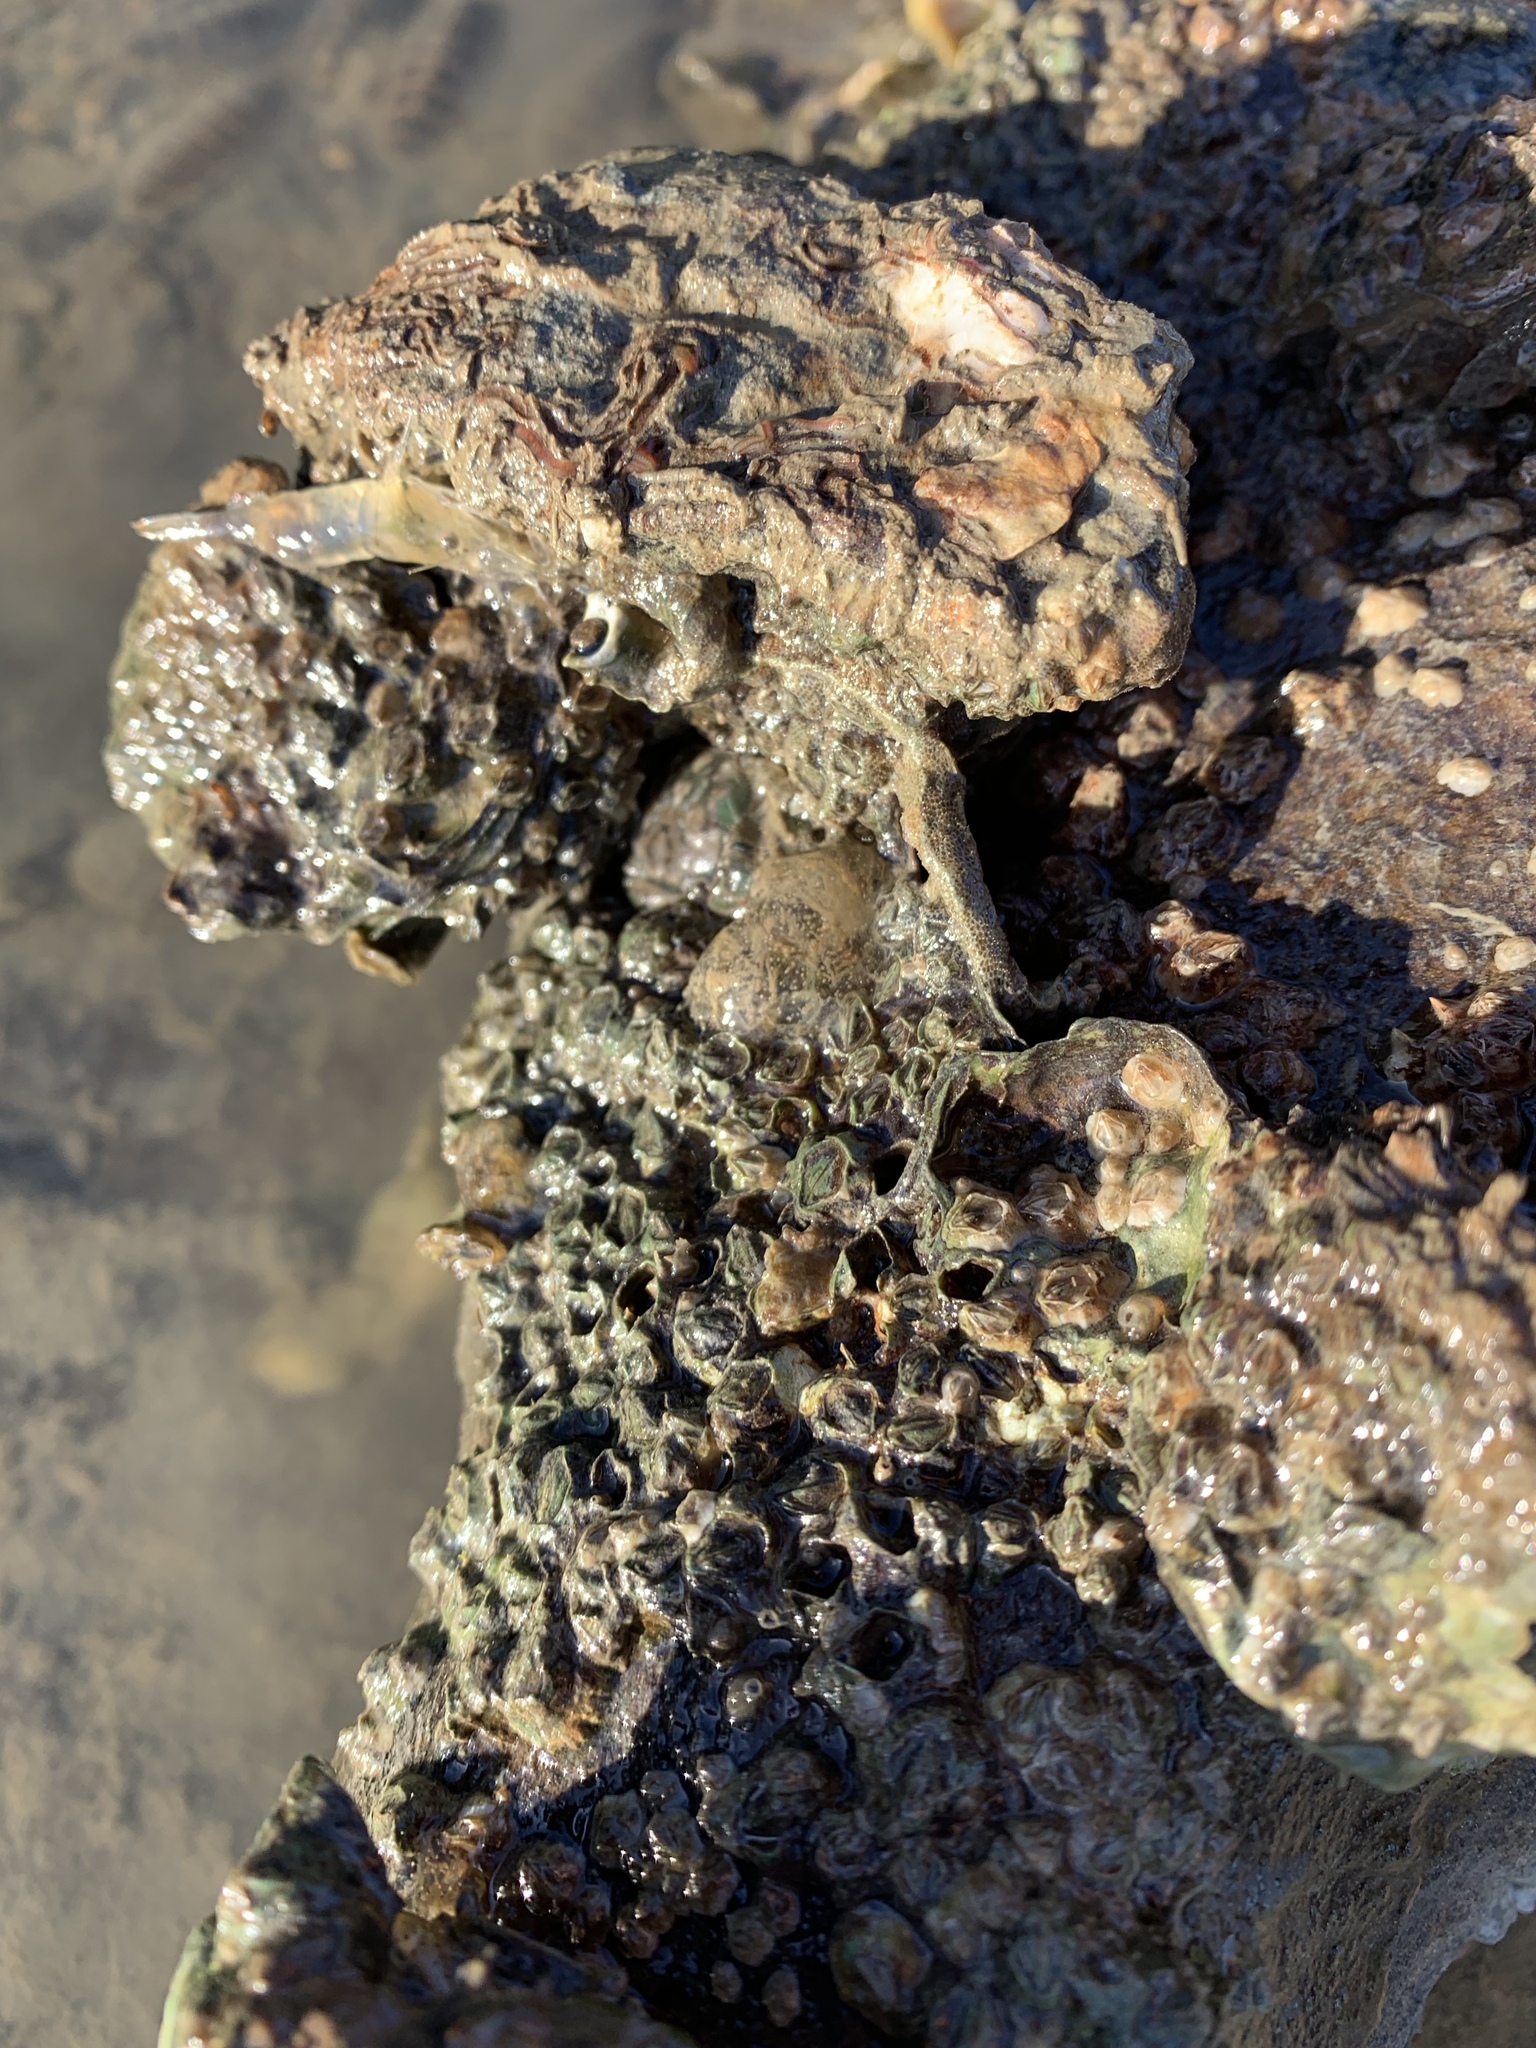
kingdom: Animalia
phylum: Arthropoda
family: Elminiidae
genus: Austrominius
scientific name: Austrominius modestus
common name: Australasian barnacle
